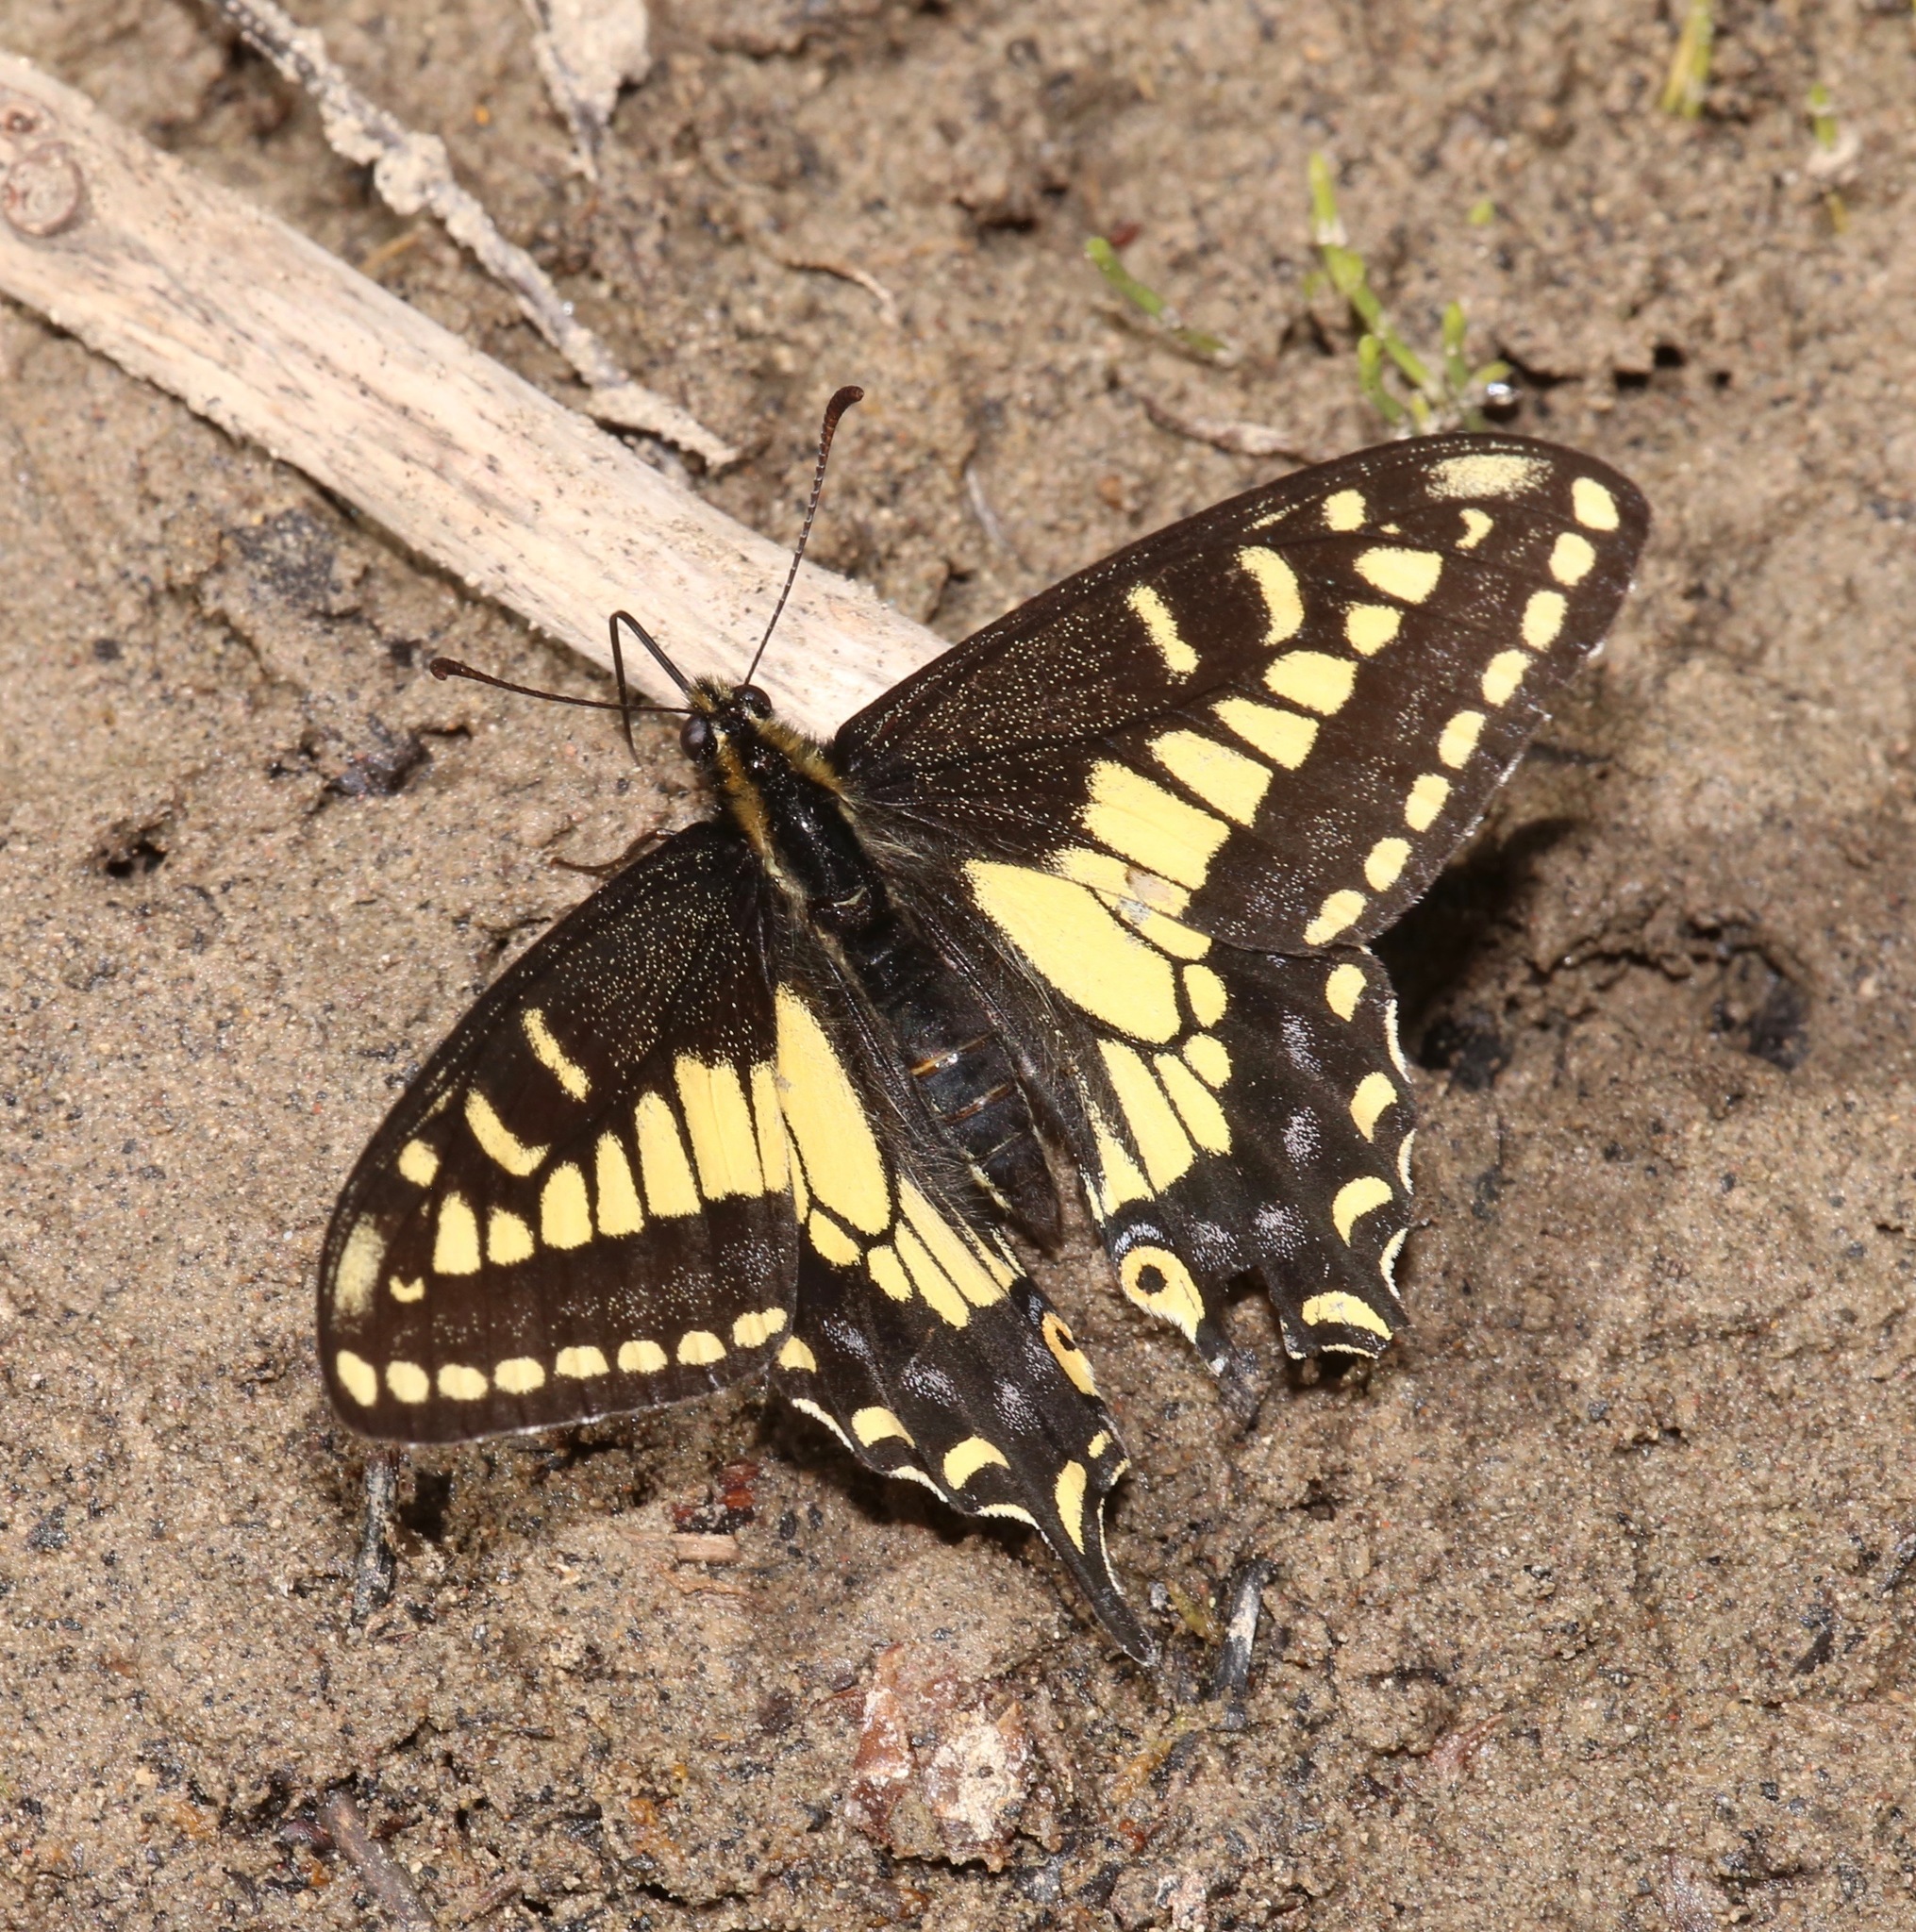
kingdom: Animalia
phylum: Arthropoda
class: Insecta
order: Lepidoptera
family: Papilionidae
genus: Papilio
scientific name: Papilio zelicaon
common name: Anise swallowtail
